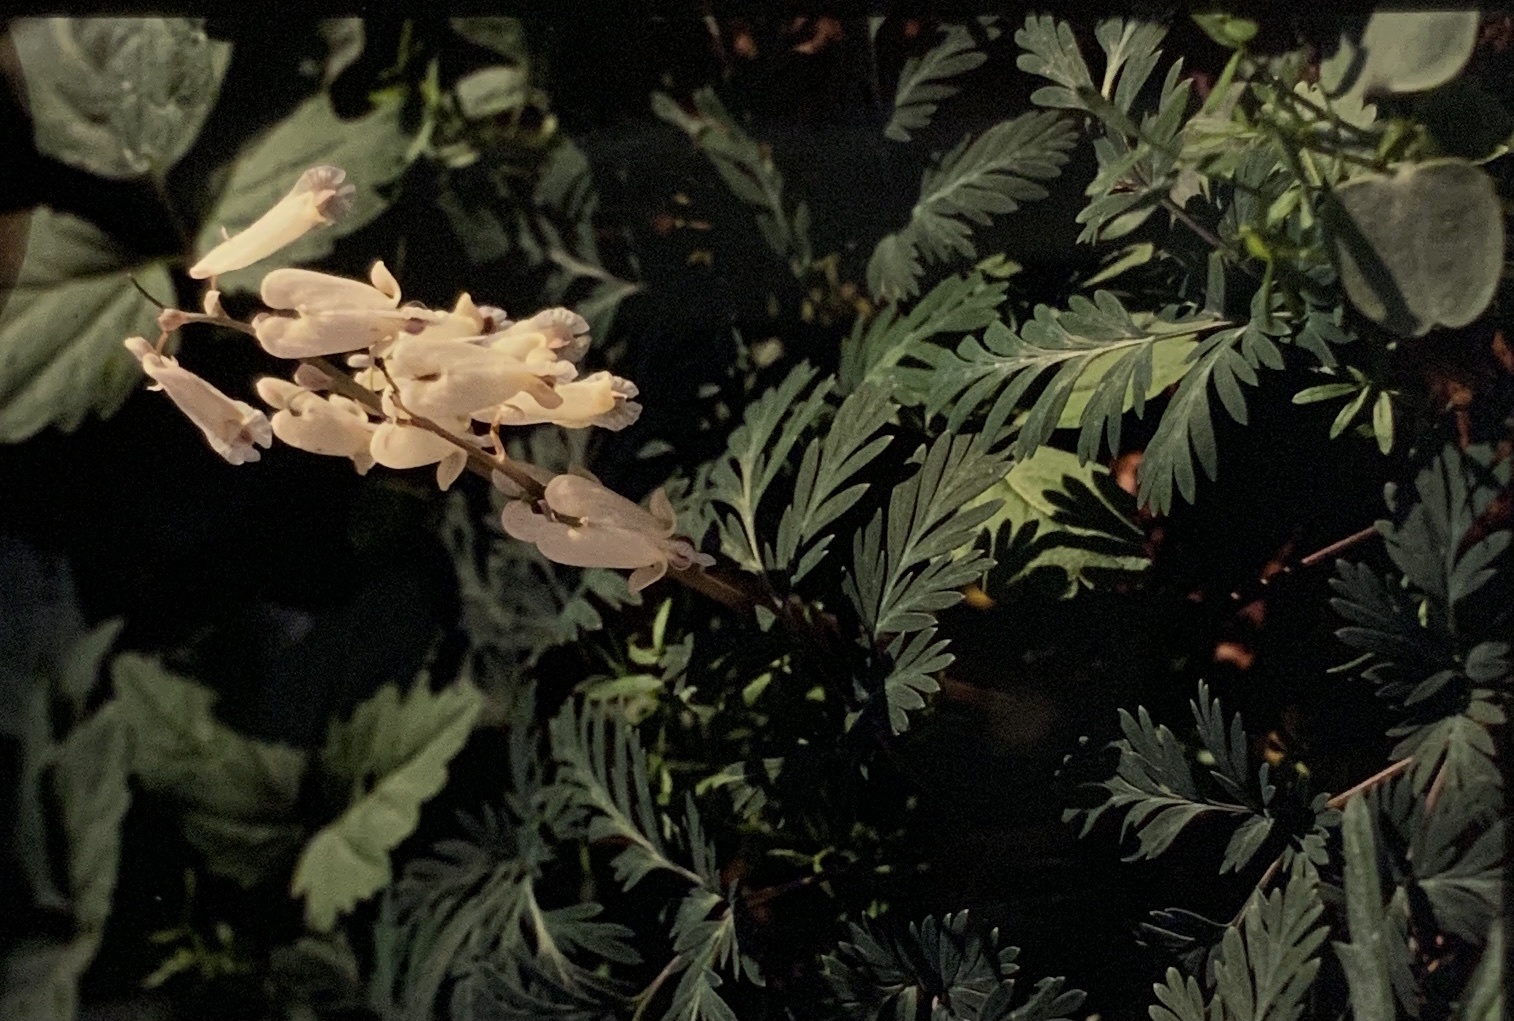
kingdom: Plantae
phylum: Tracheophyta
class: Magnoliopsida
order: Ranunculales
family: Papaveraceae
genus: Dicentra
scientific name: Dicentra canadensis
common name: Squirrel-corn
